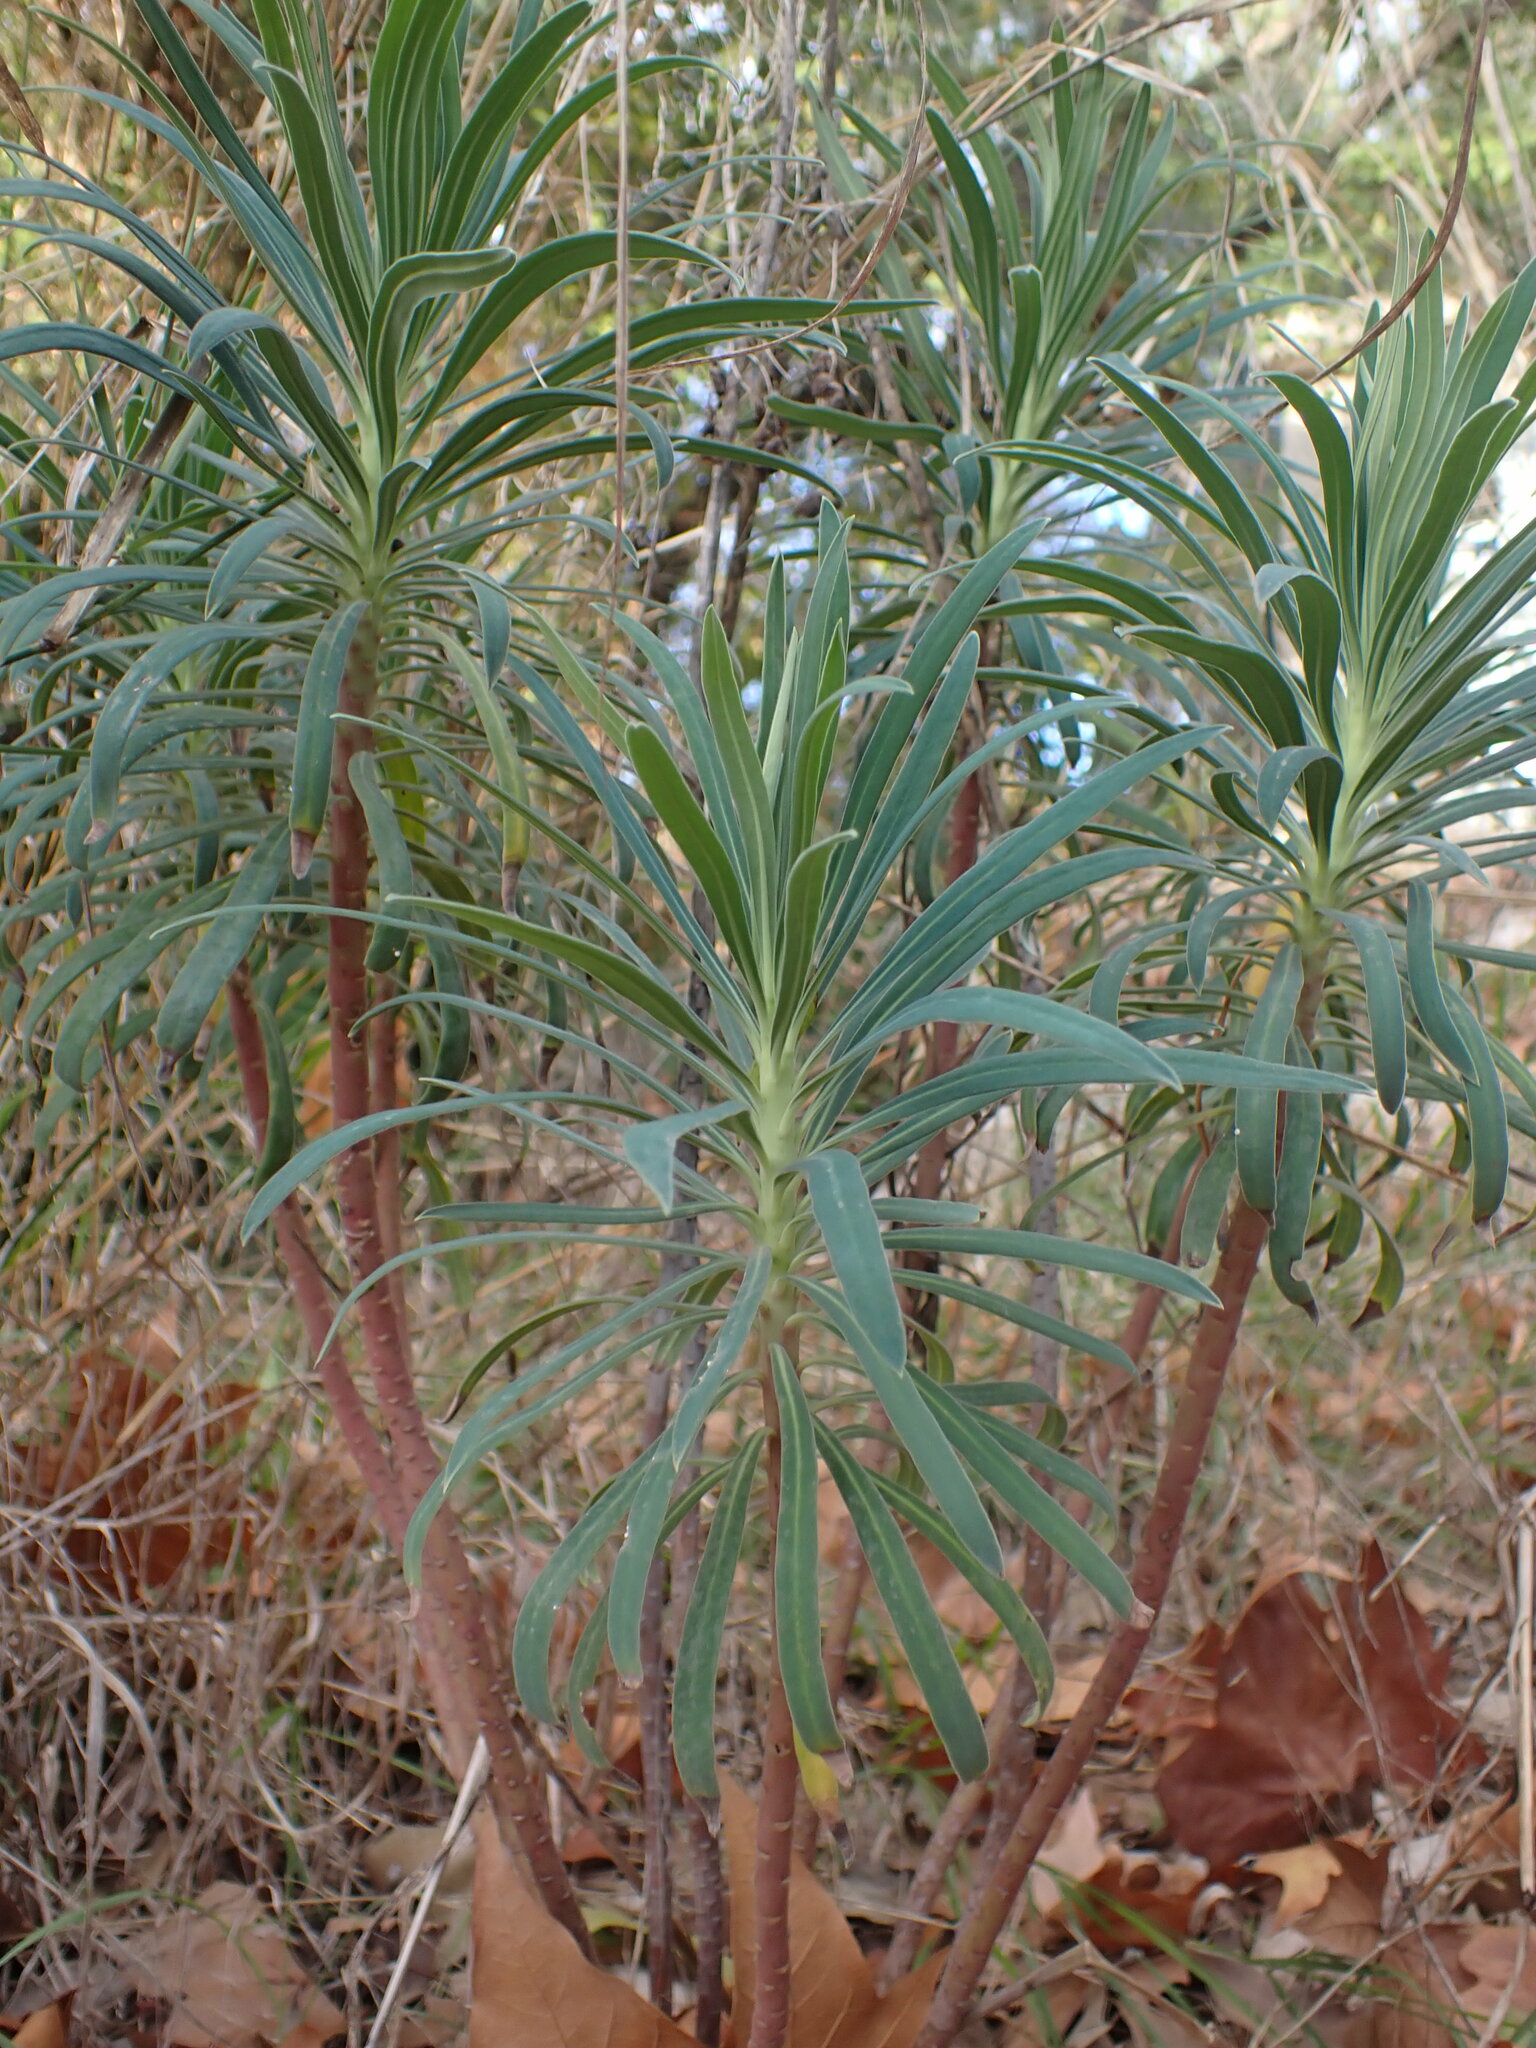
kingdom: Plantae
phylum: Tracheophyta
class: Magnoliopsida
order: Malpighiales
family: Euphorbiaceae
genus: Euphorbia
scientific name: Euphorbia characias
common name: Mediterranean spurge
